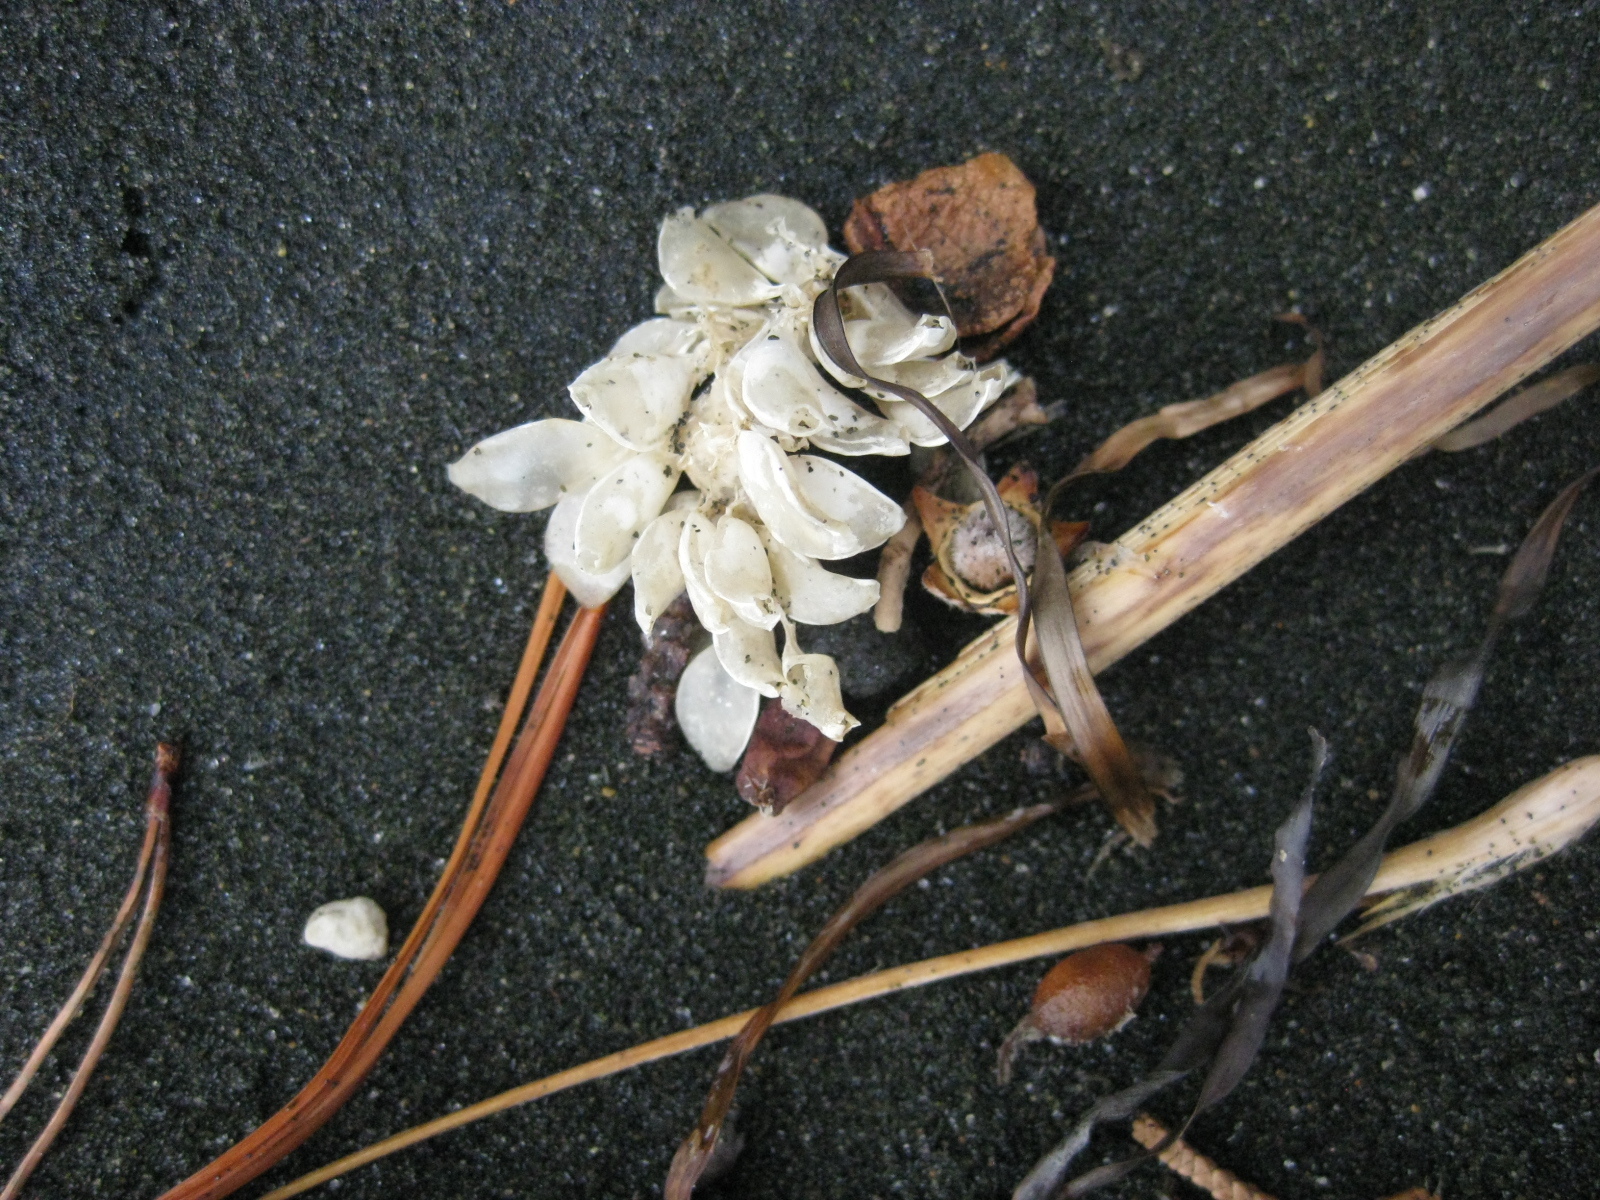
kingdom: Animalia
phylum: Mollusca
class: Gastropoda
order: Neogastropoda
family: Cominellidae
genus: Cominella
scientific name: Cominella adspersa
